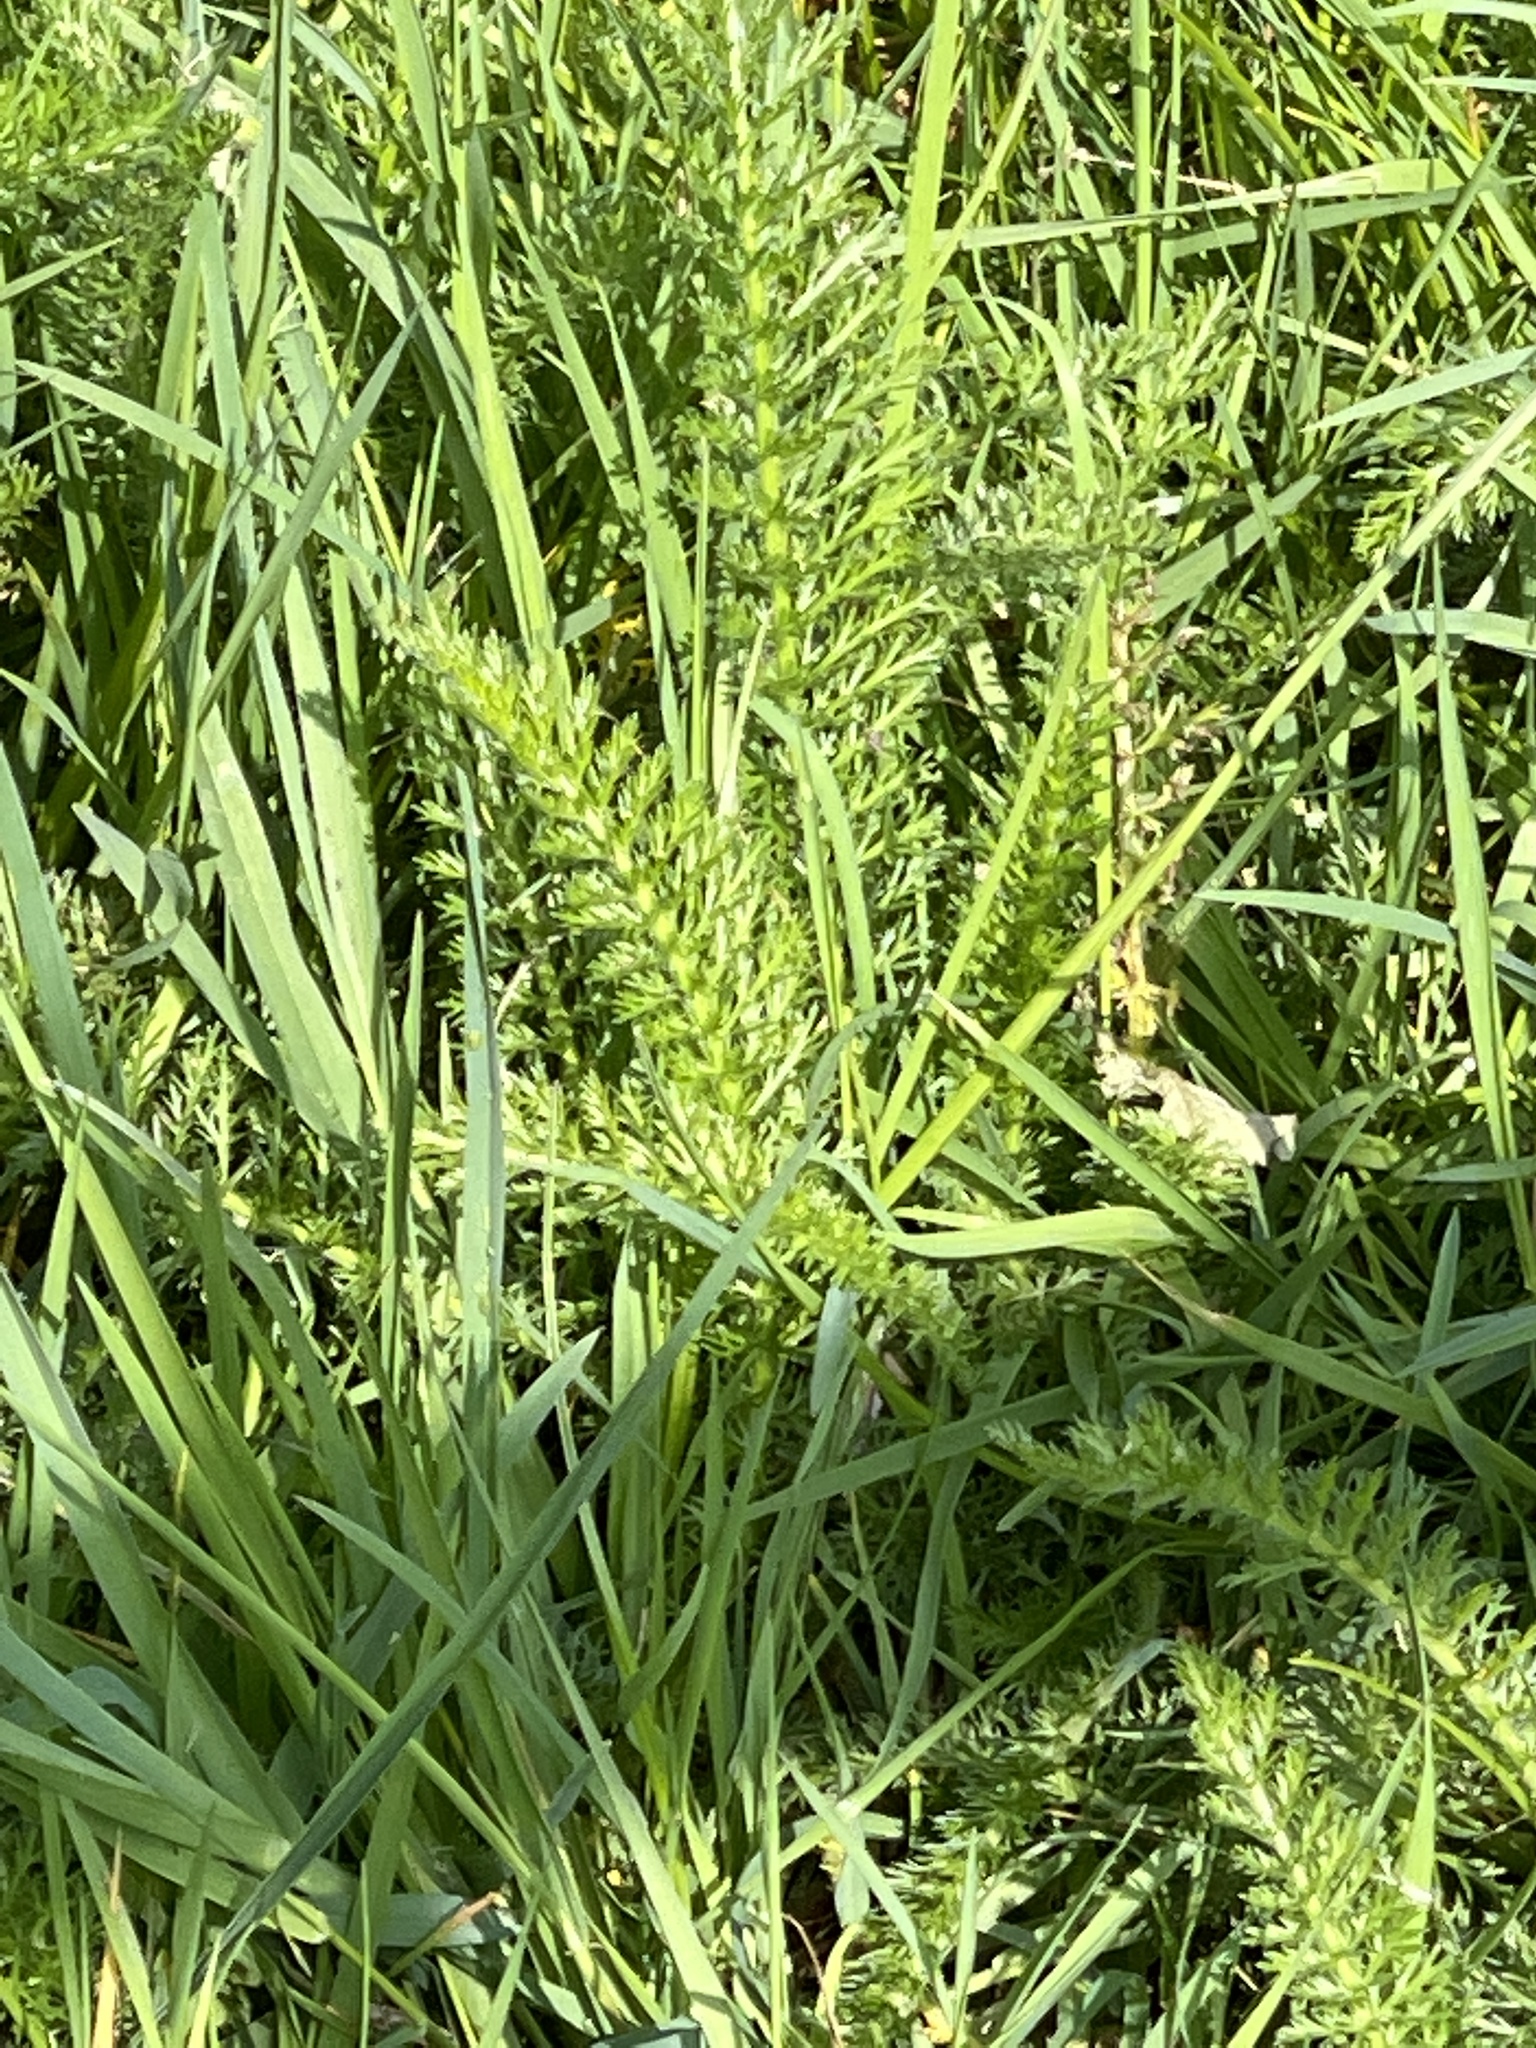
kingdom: Plantae
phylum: Tracheophyta
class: Magnoliopsida
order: Asterales
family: Asteraceae
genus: Achillea
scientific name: Achillea millefolium
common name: Yarrow
